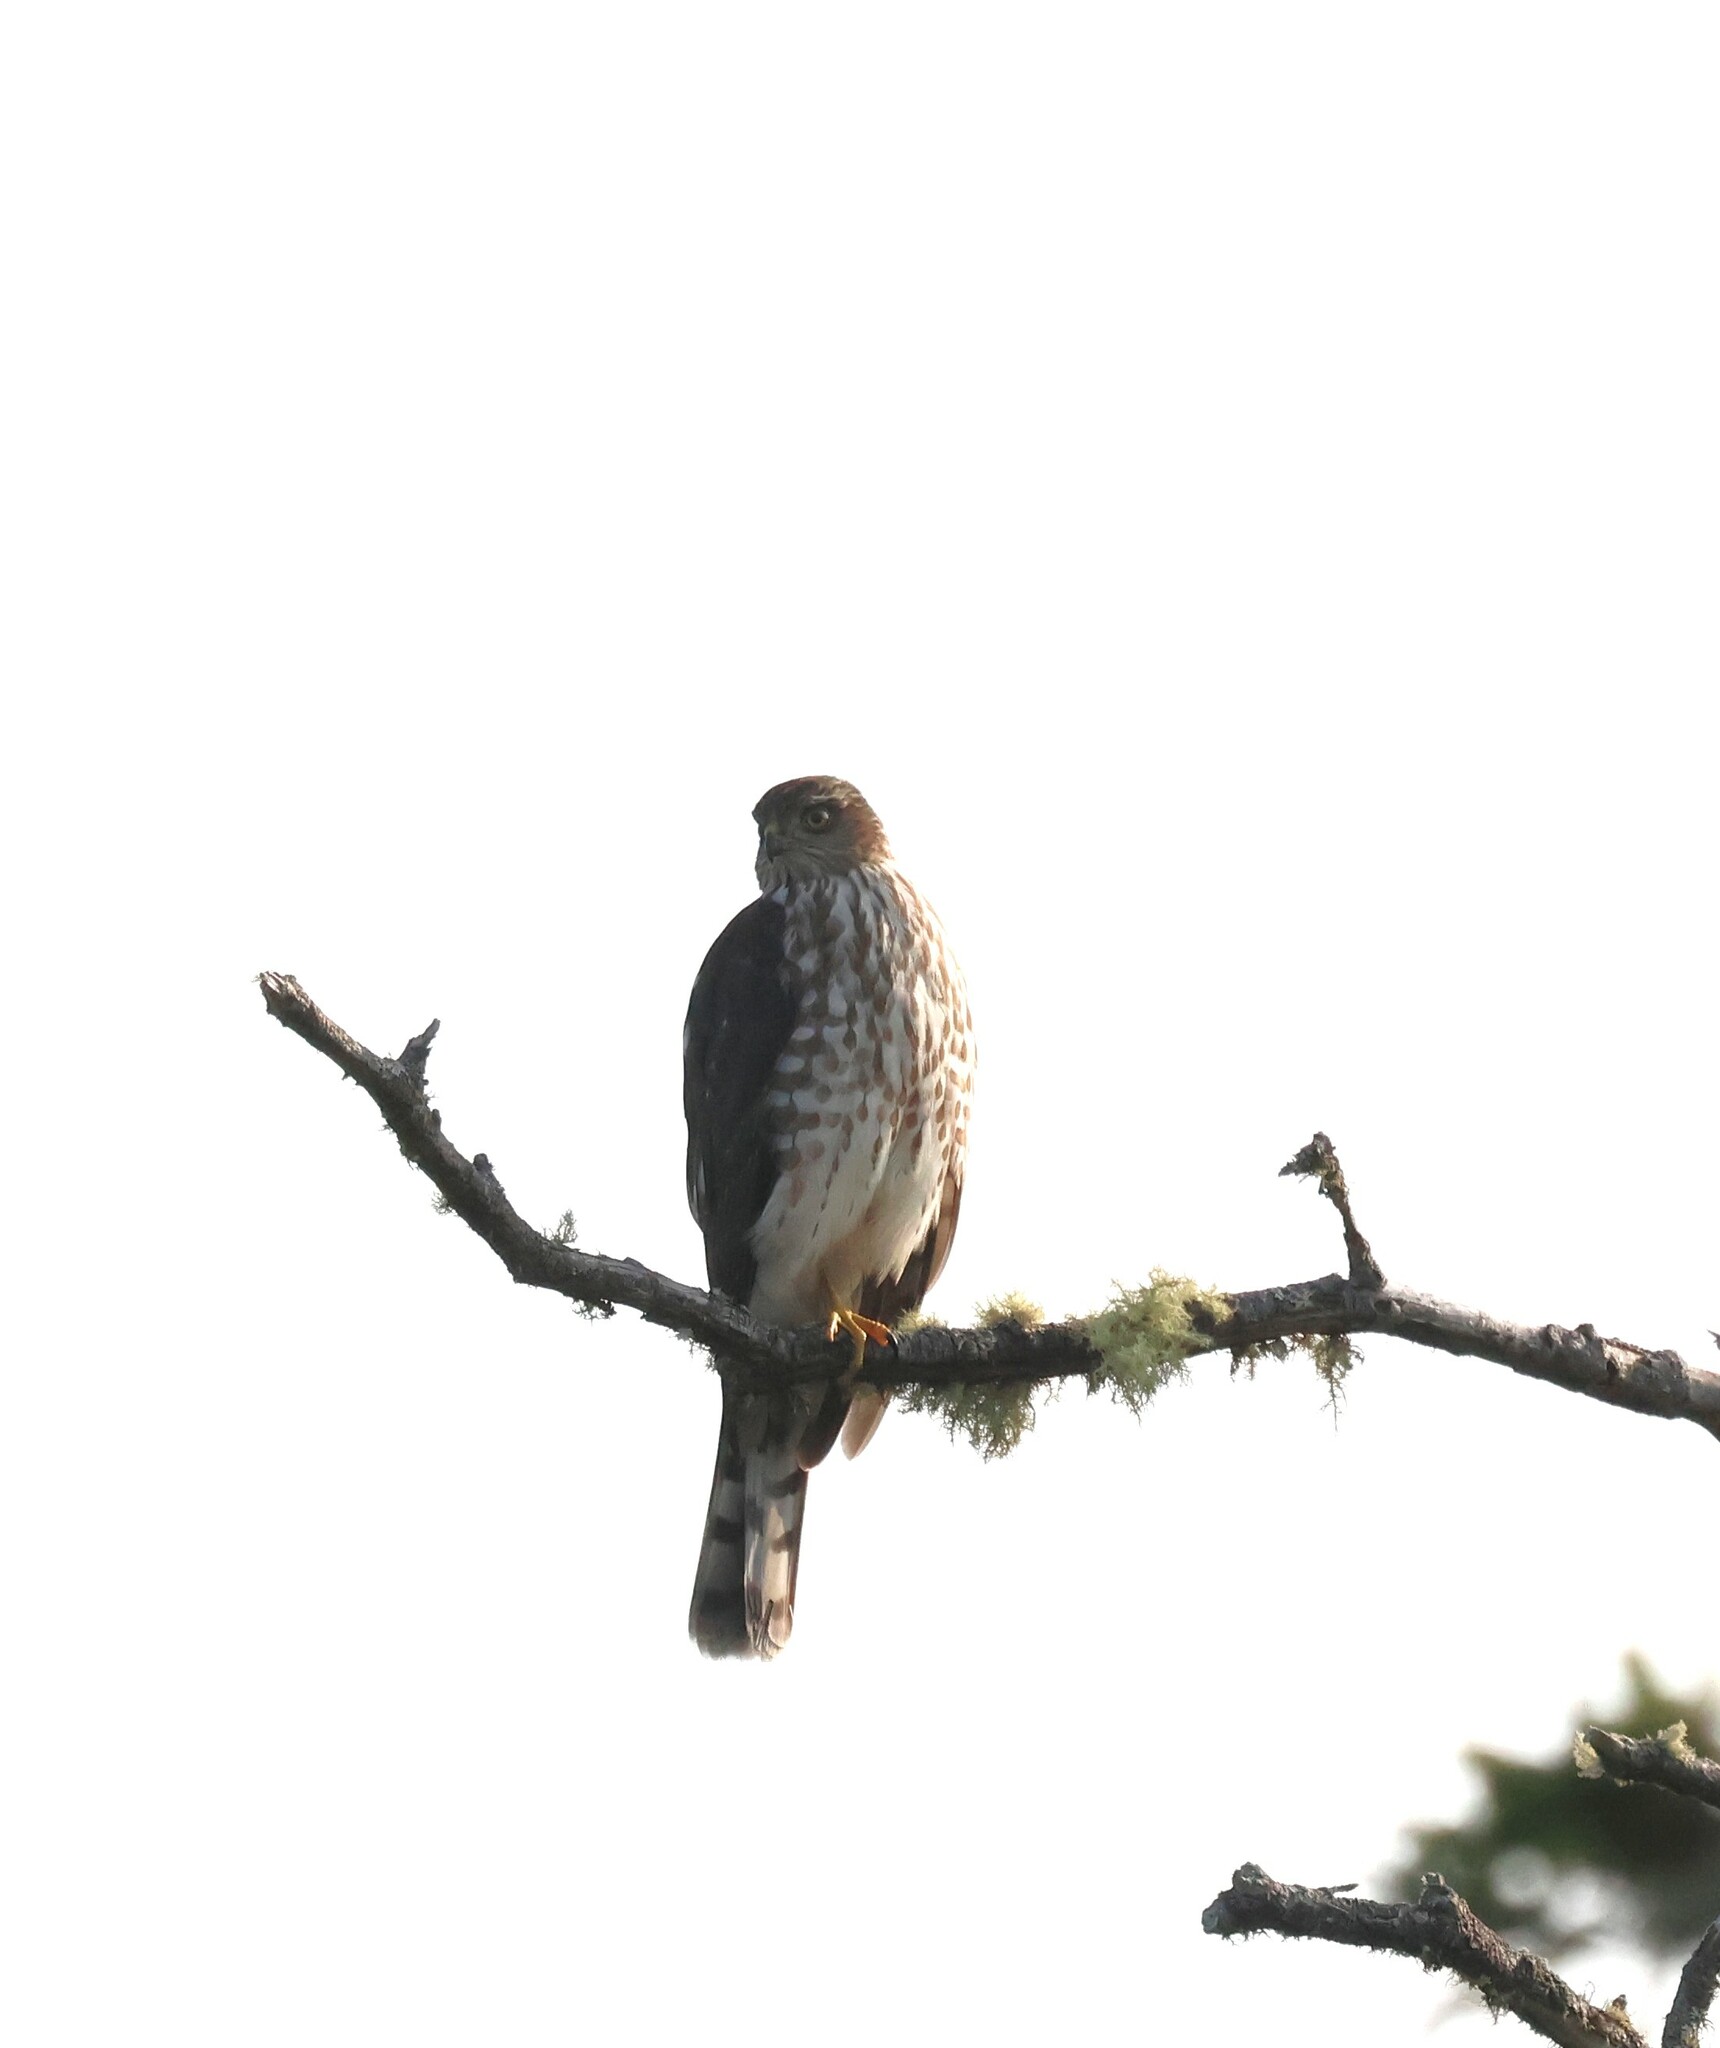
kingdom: Animalia
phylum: Chordata
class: Aves
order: Accipitriformes
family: Accipitridae
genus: Accipiter
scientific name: Accipiter striatus
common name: Sharp-shinned hawk
